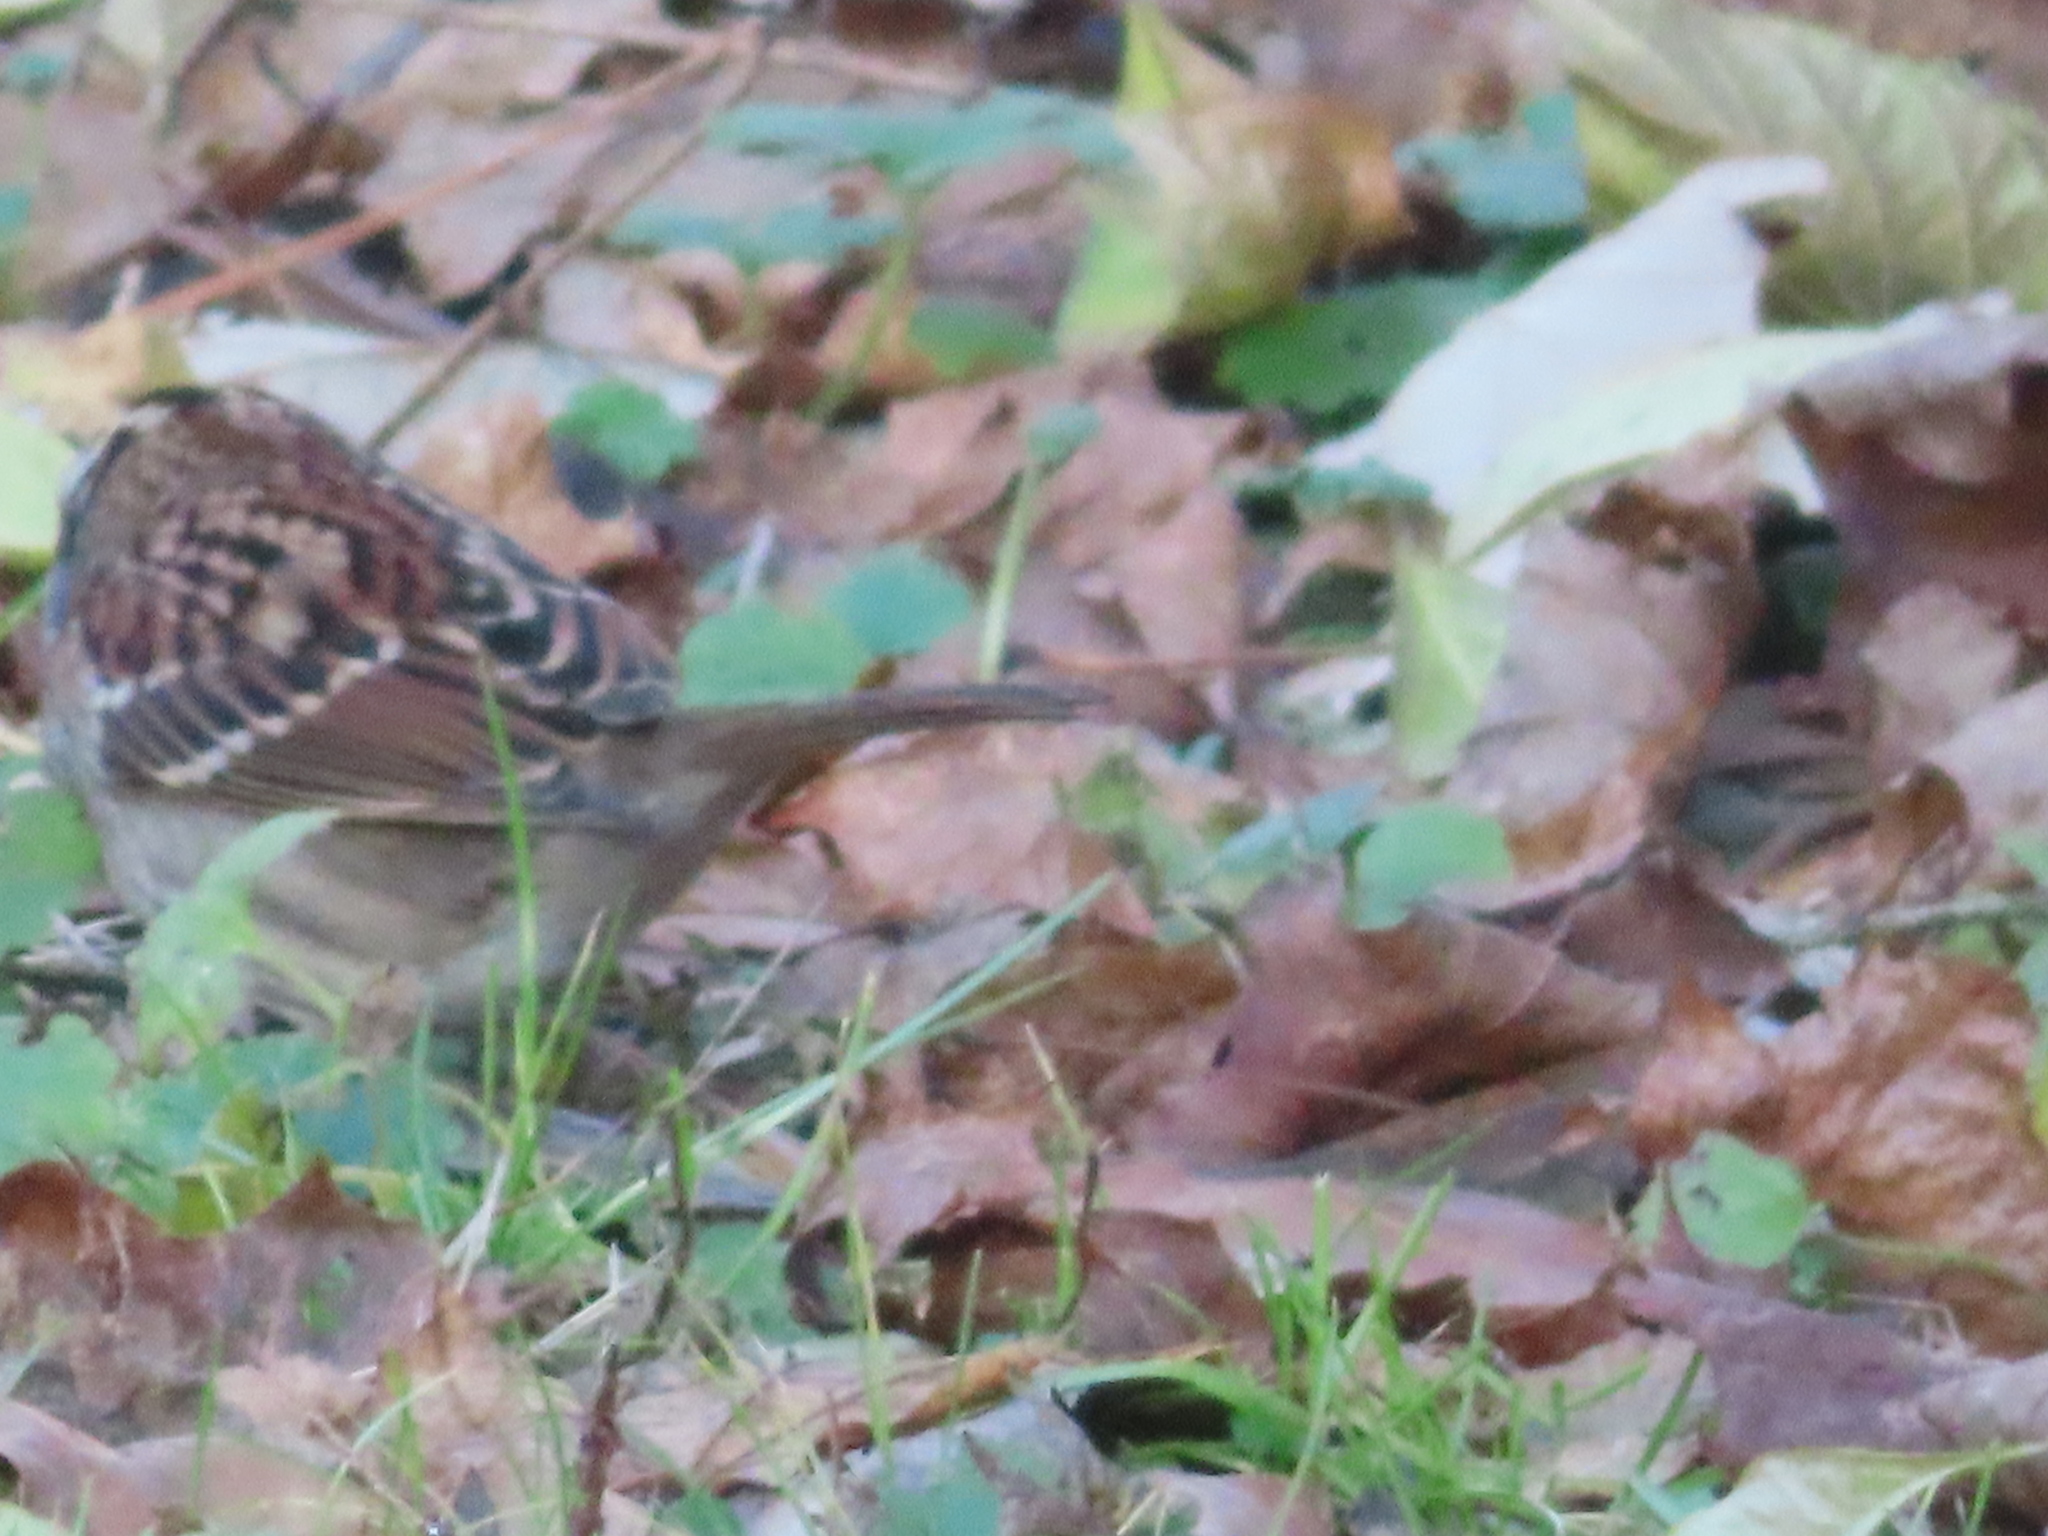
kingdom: Animalia
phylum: Chordata
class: Aves
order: Passeriformes
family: Passerellidae
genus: Zonotrichia
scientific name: Zonotrichia albicollis
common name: White-throated sparrow
